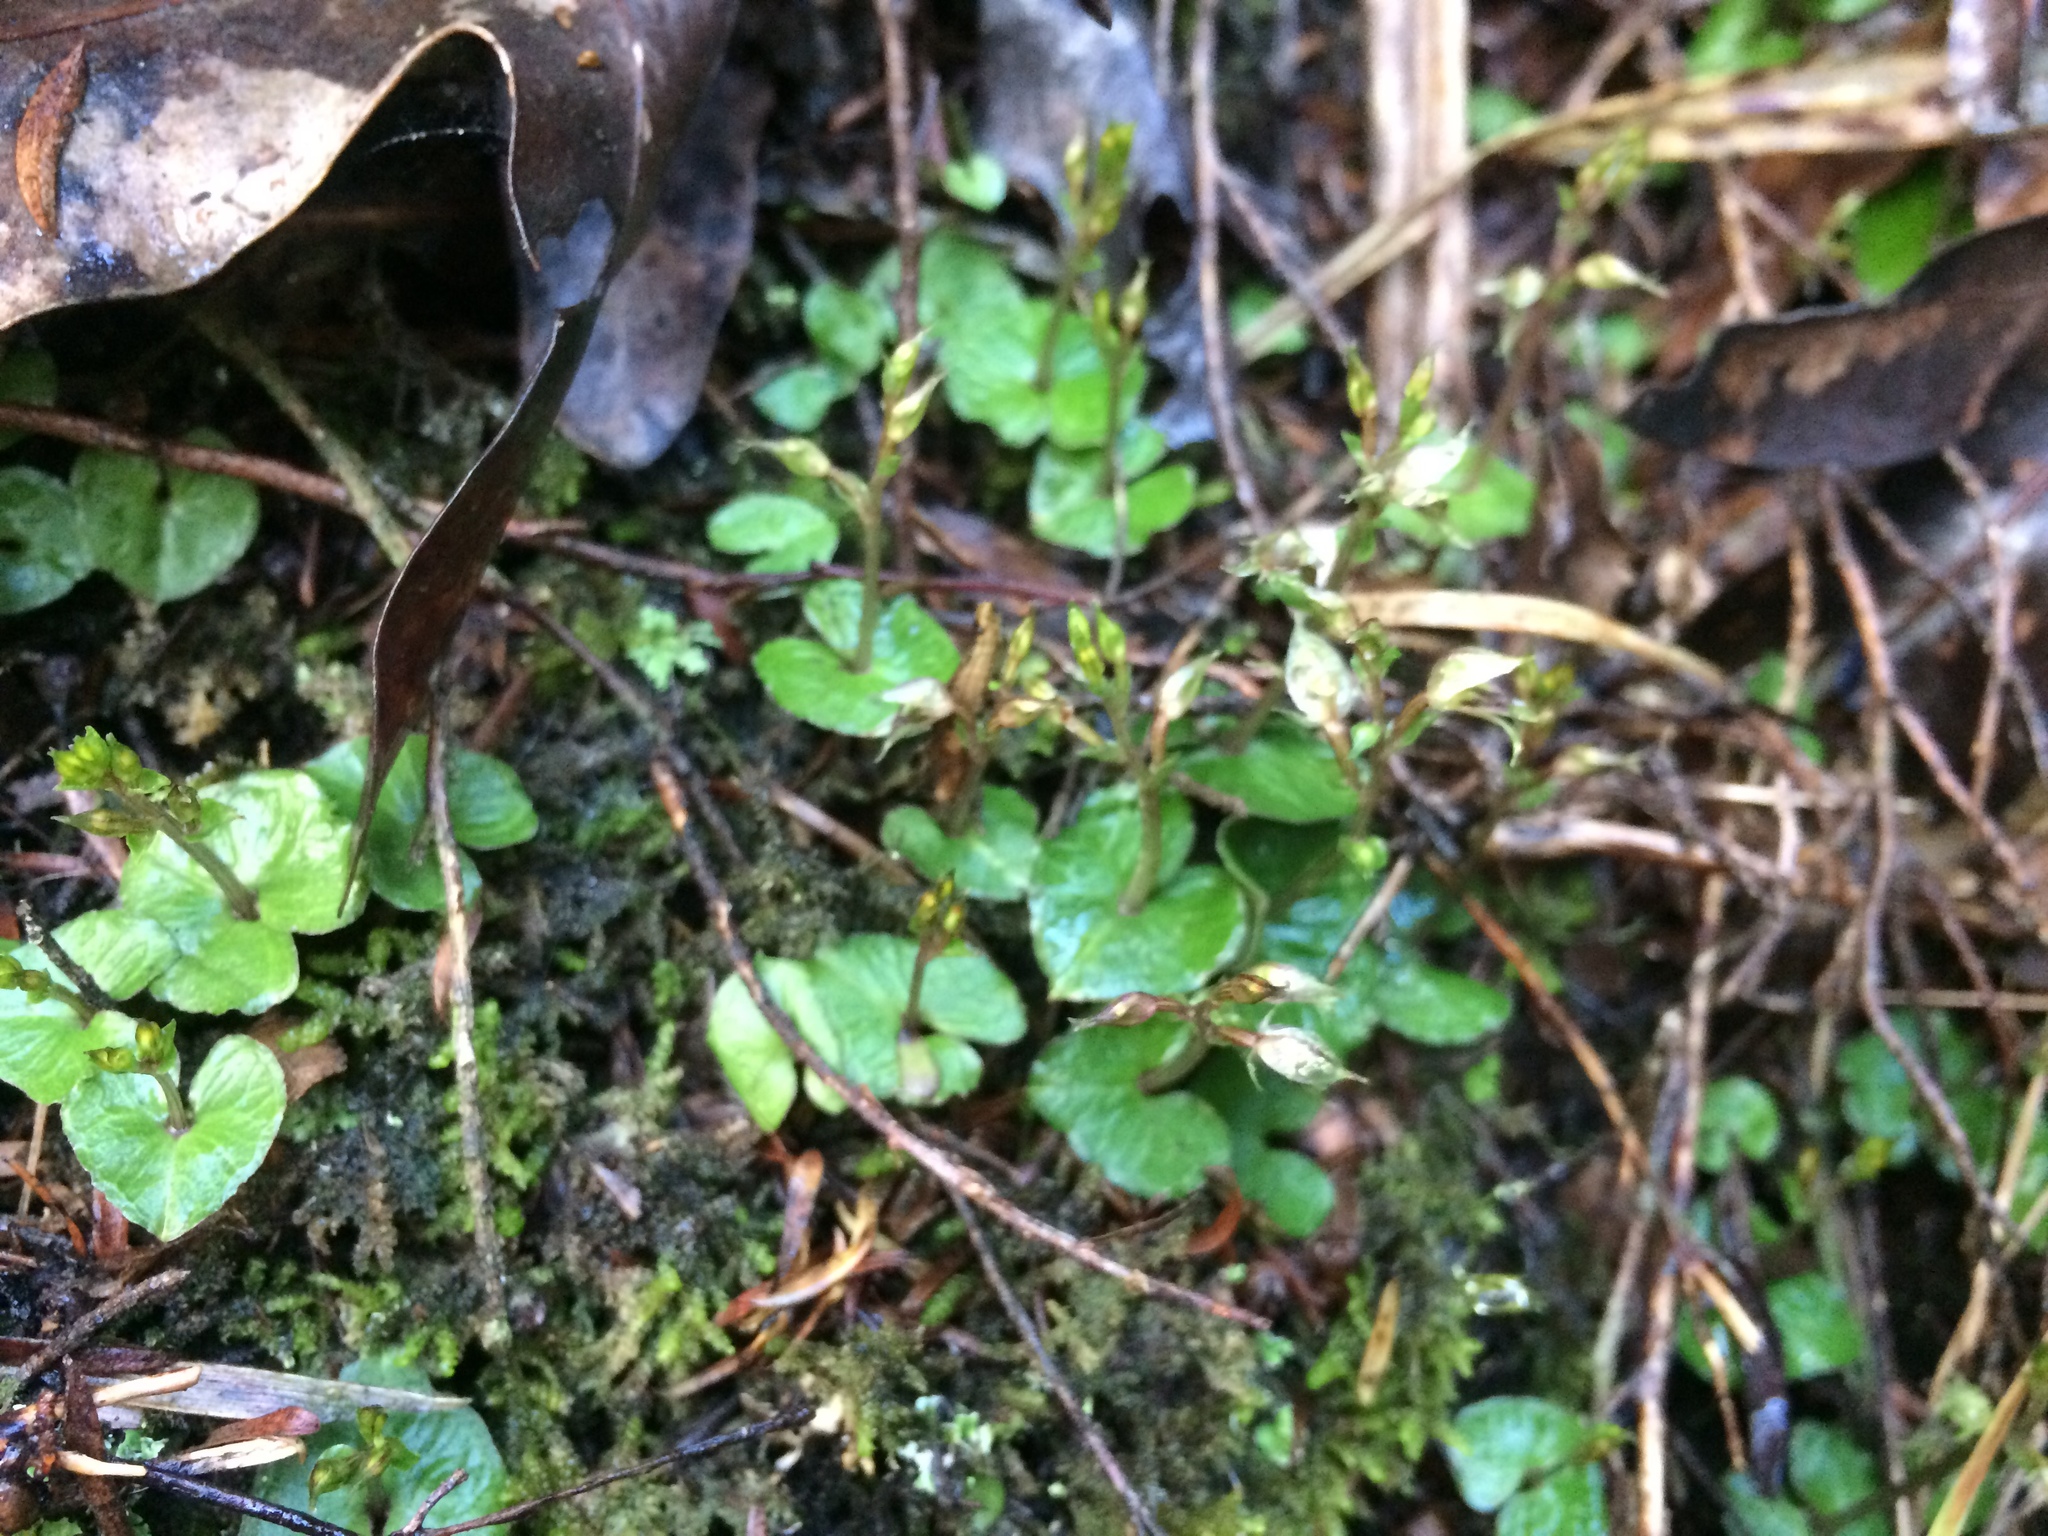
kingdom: Plantae
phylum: Tracheophyta
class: Liliopsida
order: Asparagales
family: Orchidaceae
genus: Acianthus
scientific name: Acianthus sinclairii
